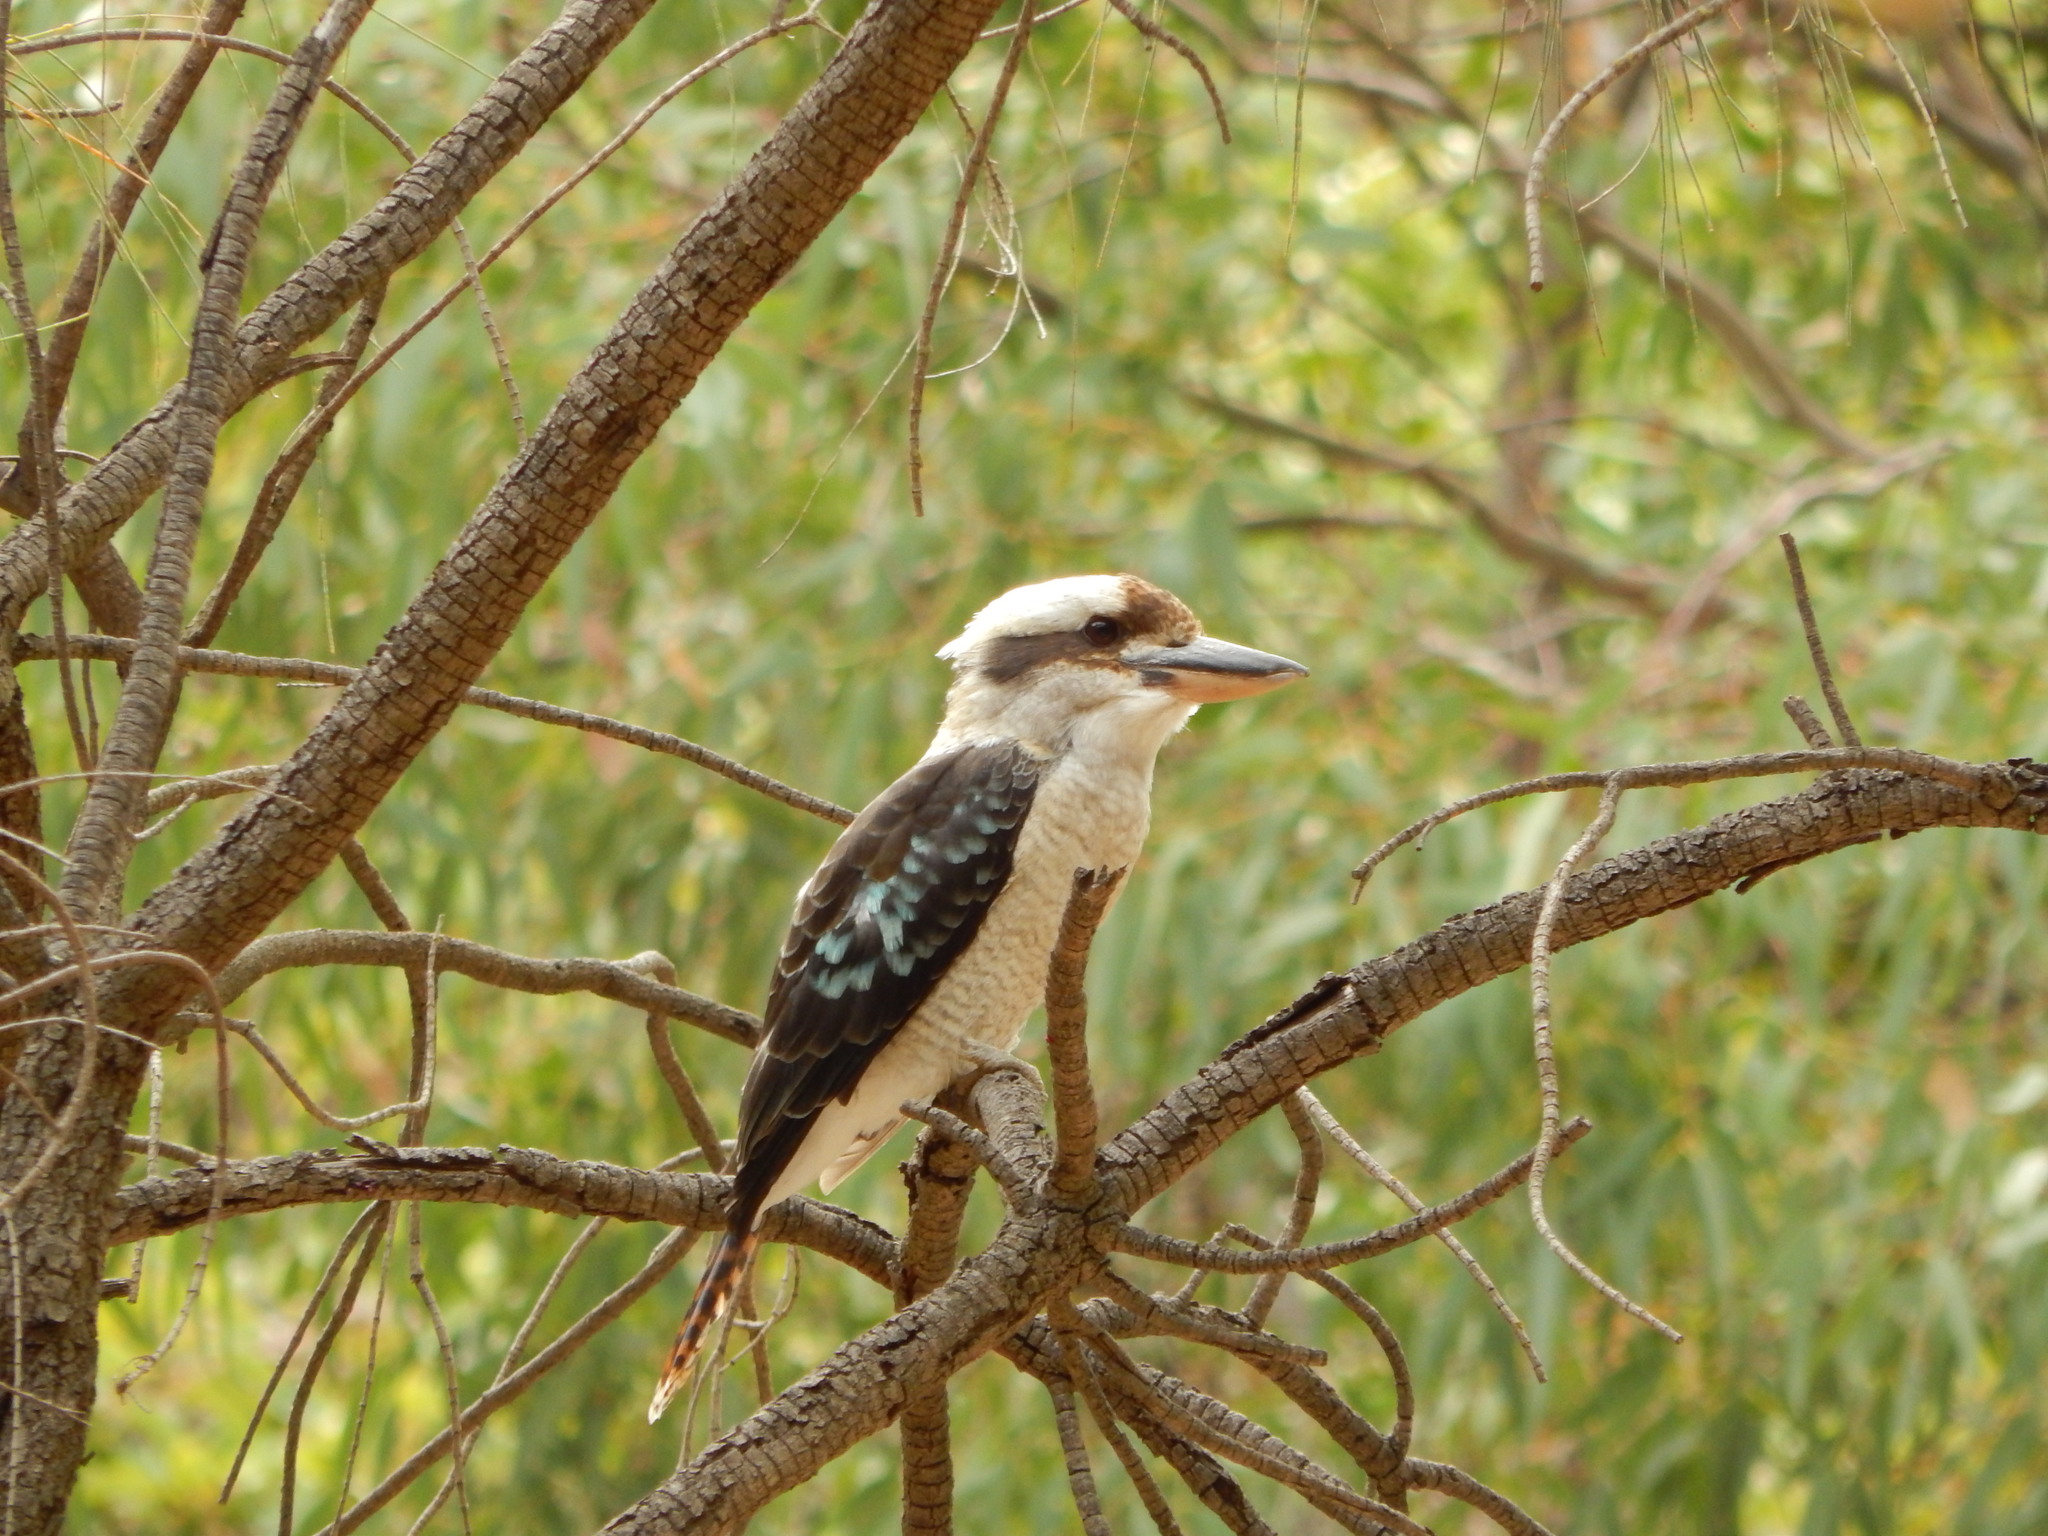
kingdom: Animalia
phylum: Chordata
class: Aves
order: Coraciiformes
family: Alcedinidae
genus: Dacelo
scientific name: Dacelo novaeguineae
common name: Laughing kookaburra
